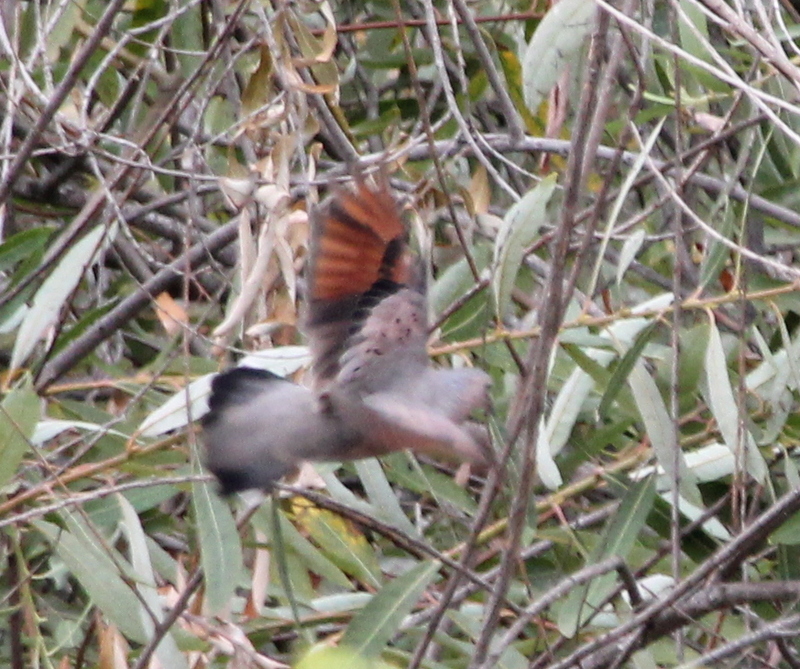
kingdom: Animalia
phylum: Chordata
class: Aves
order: Columbiformes
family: Columbidae
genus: Columbina
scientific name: Columbina passerina
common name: Common ground-dove
